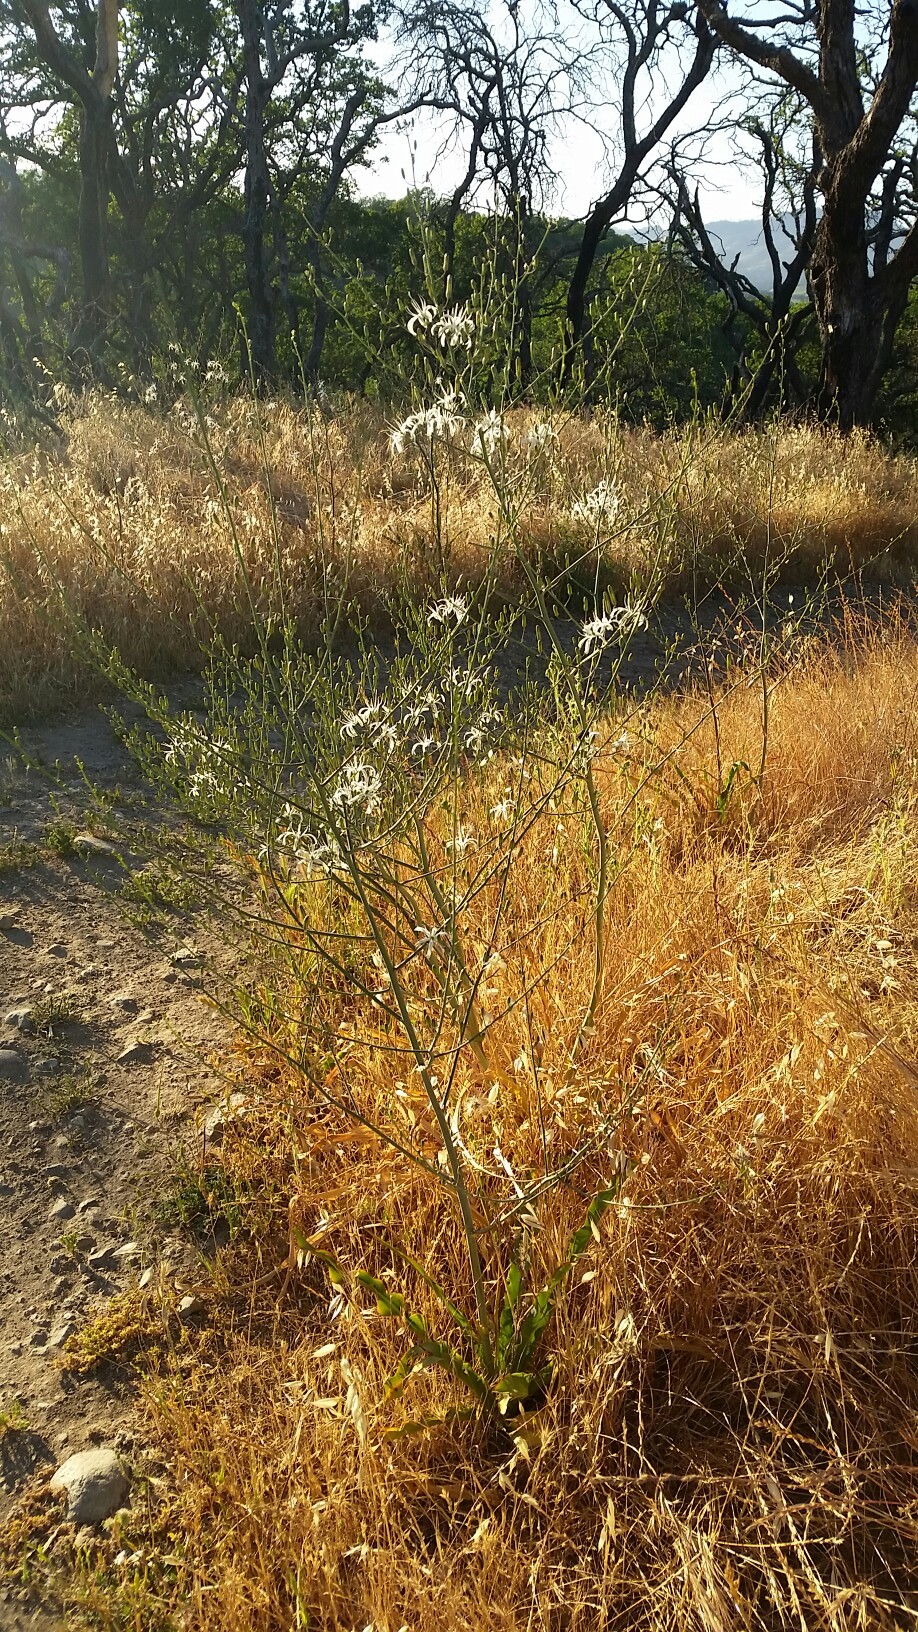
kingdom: Plantae
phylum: Tracheophyta
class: Liliopsida
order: Asparagales
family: Asparagaceae
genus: Chlorogalum
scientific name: Chlorogalum pomeridianum
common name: Amole
